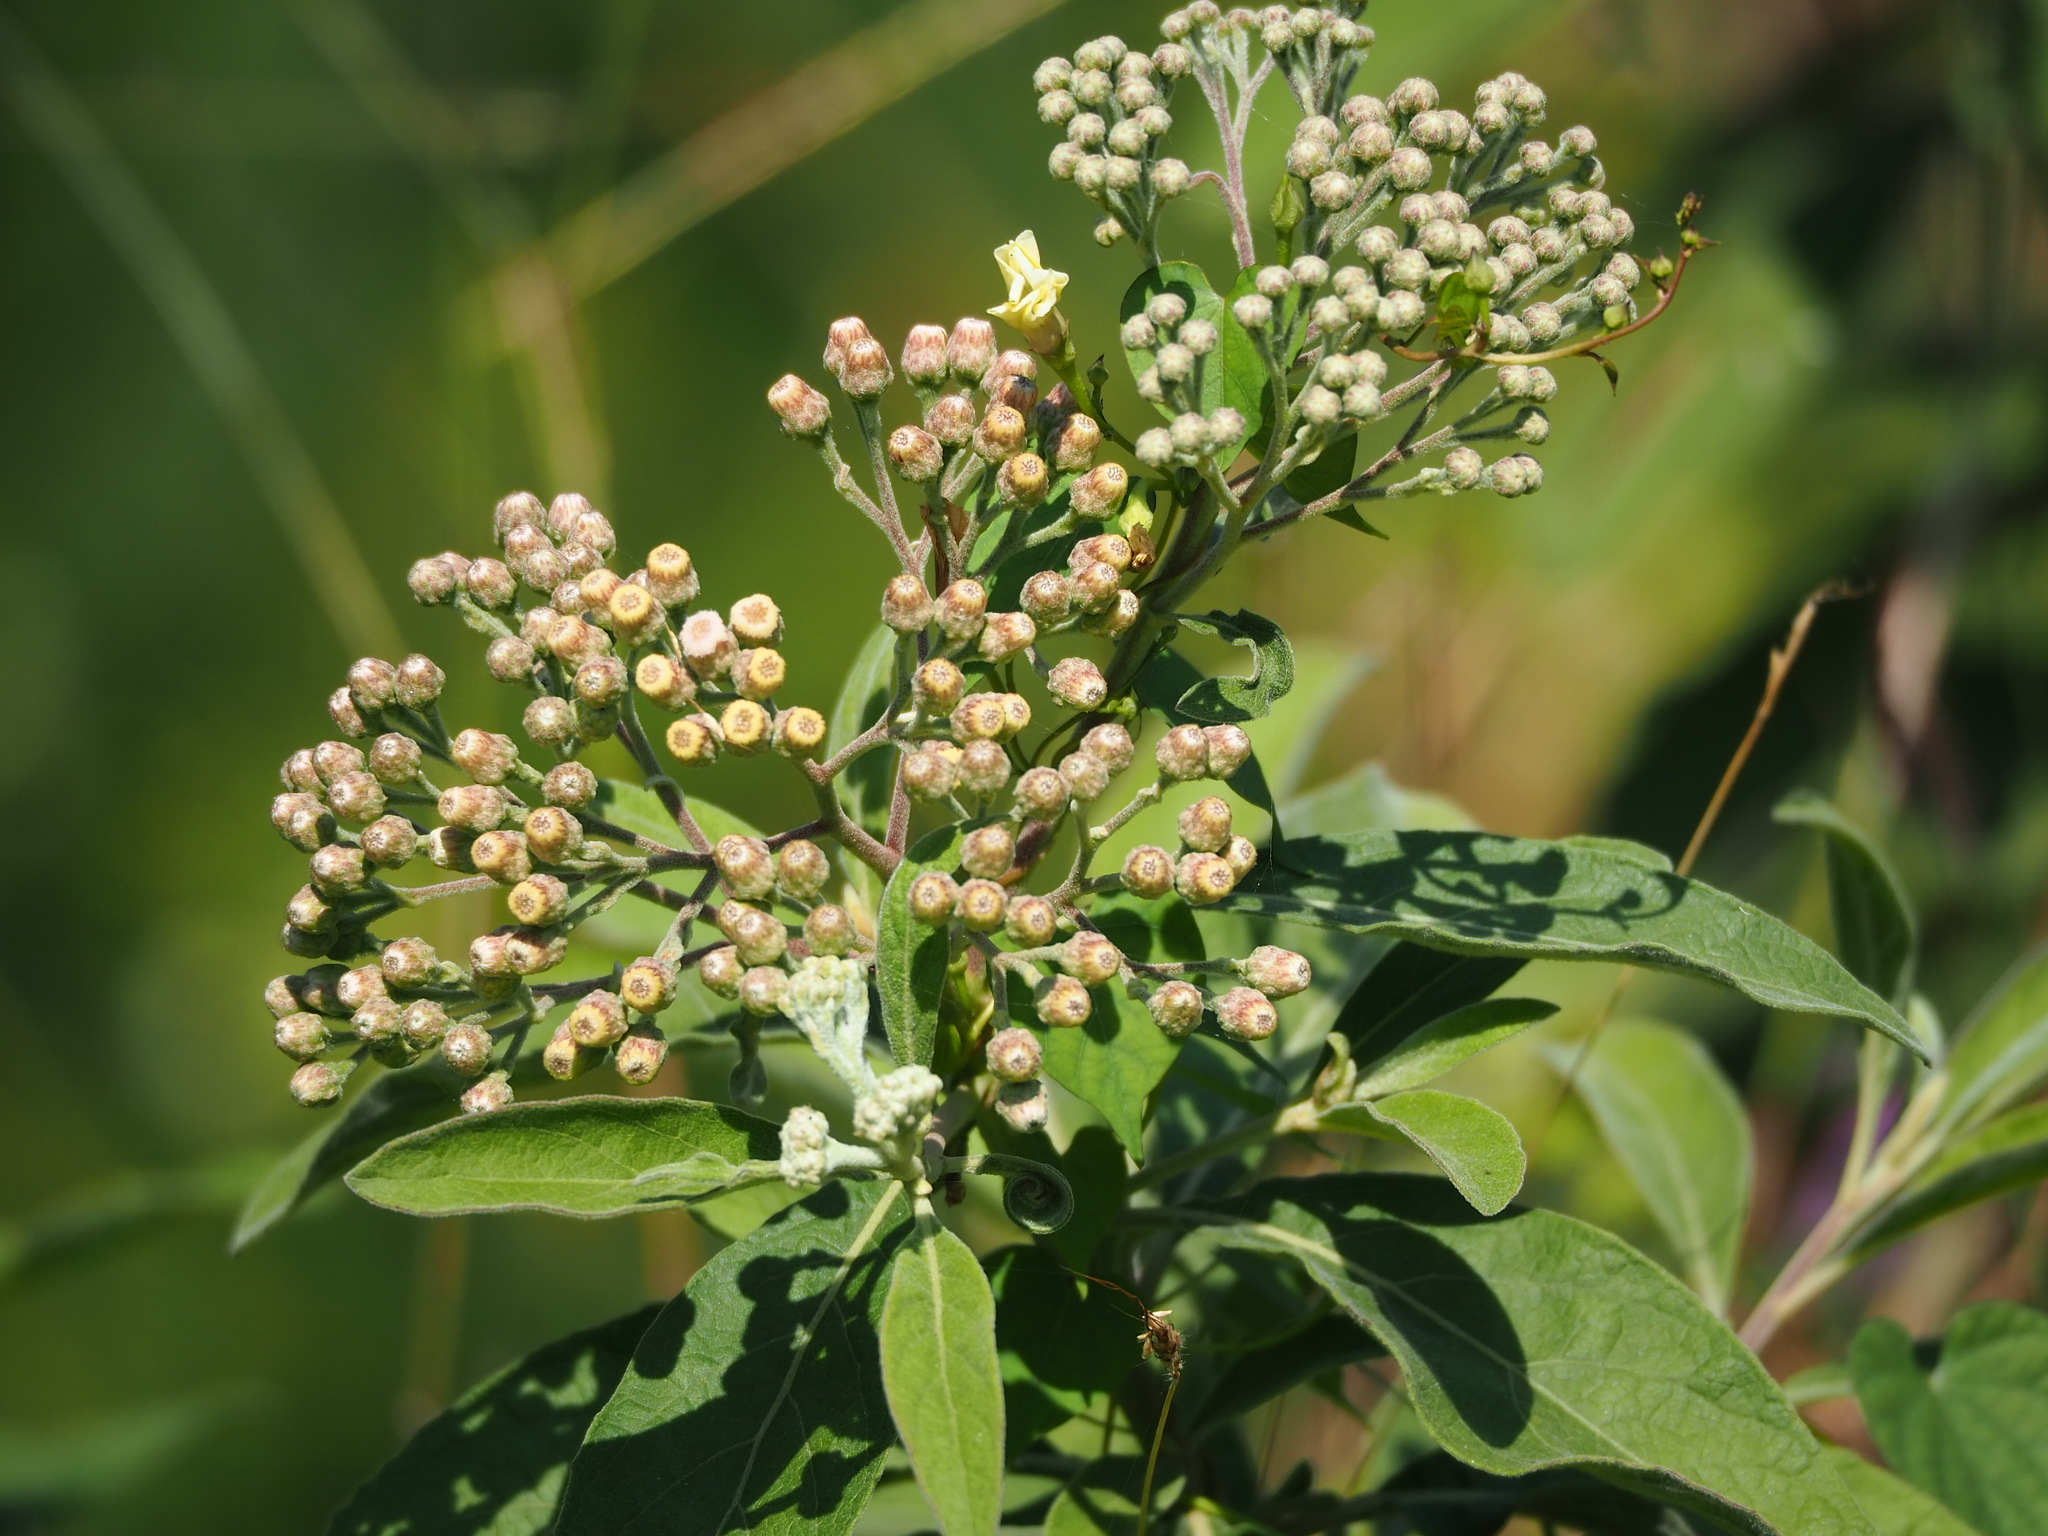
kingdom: Plantae
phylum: Tracheophyta
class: Magnoliopsida
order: Asterales
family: Asteraceae
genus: Pluchea
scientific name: Pluchea carolinensis
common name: Marsh fleabane
